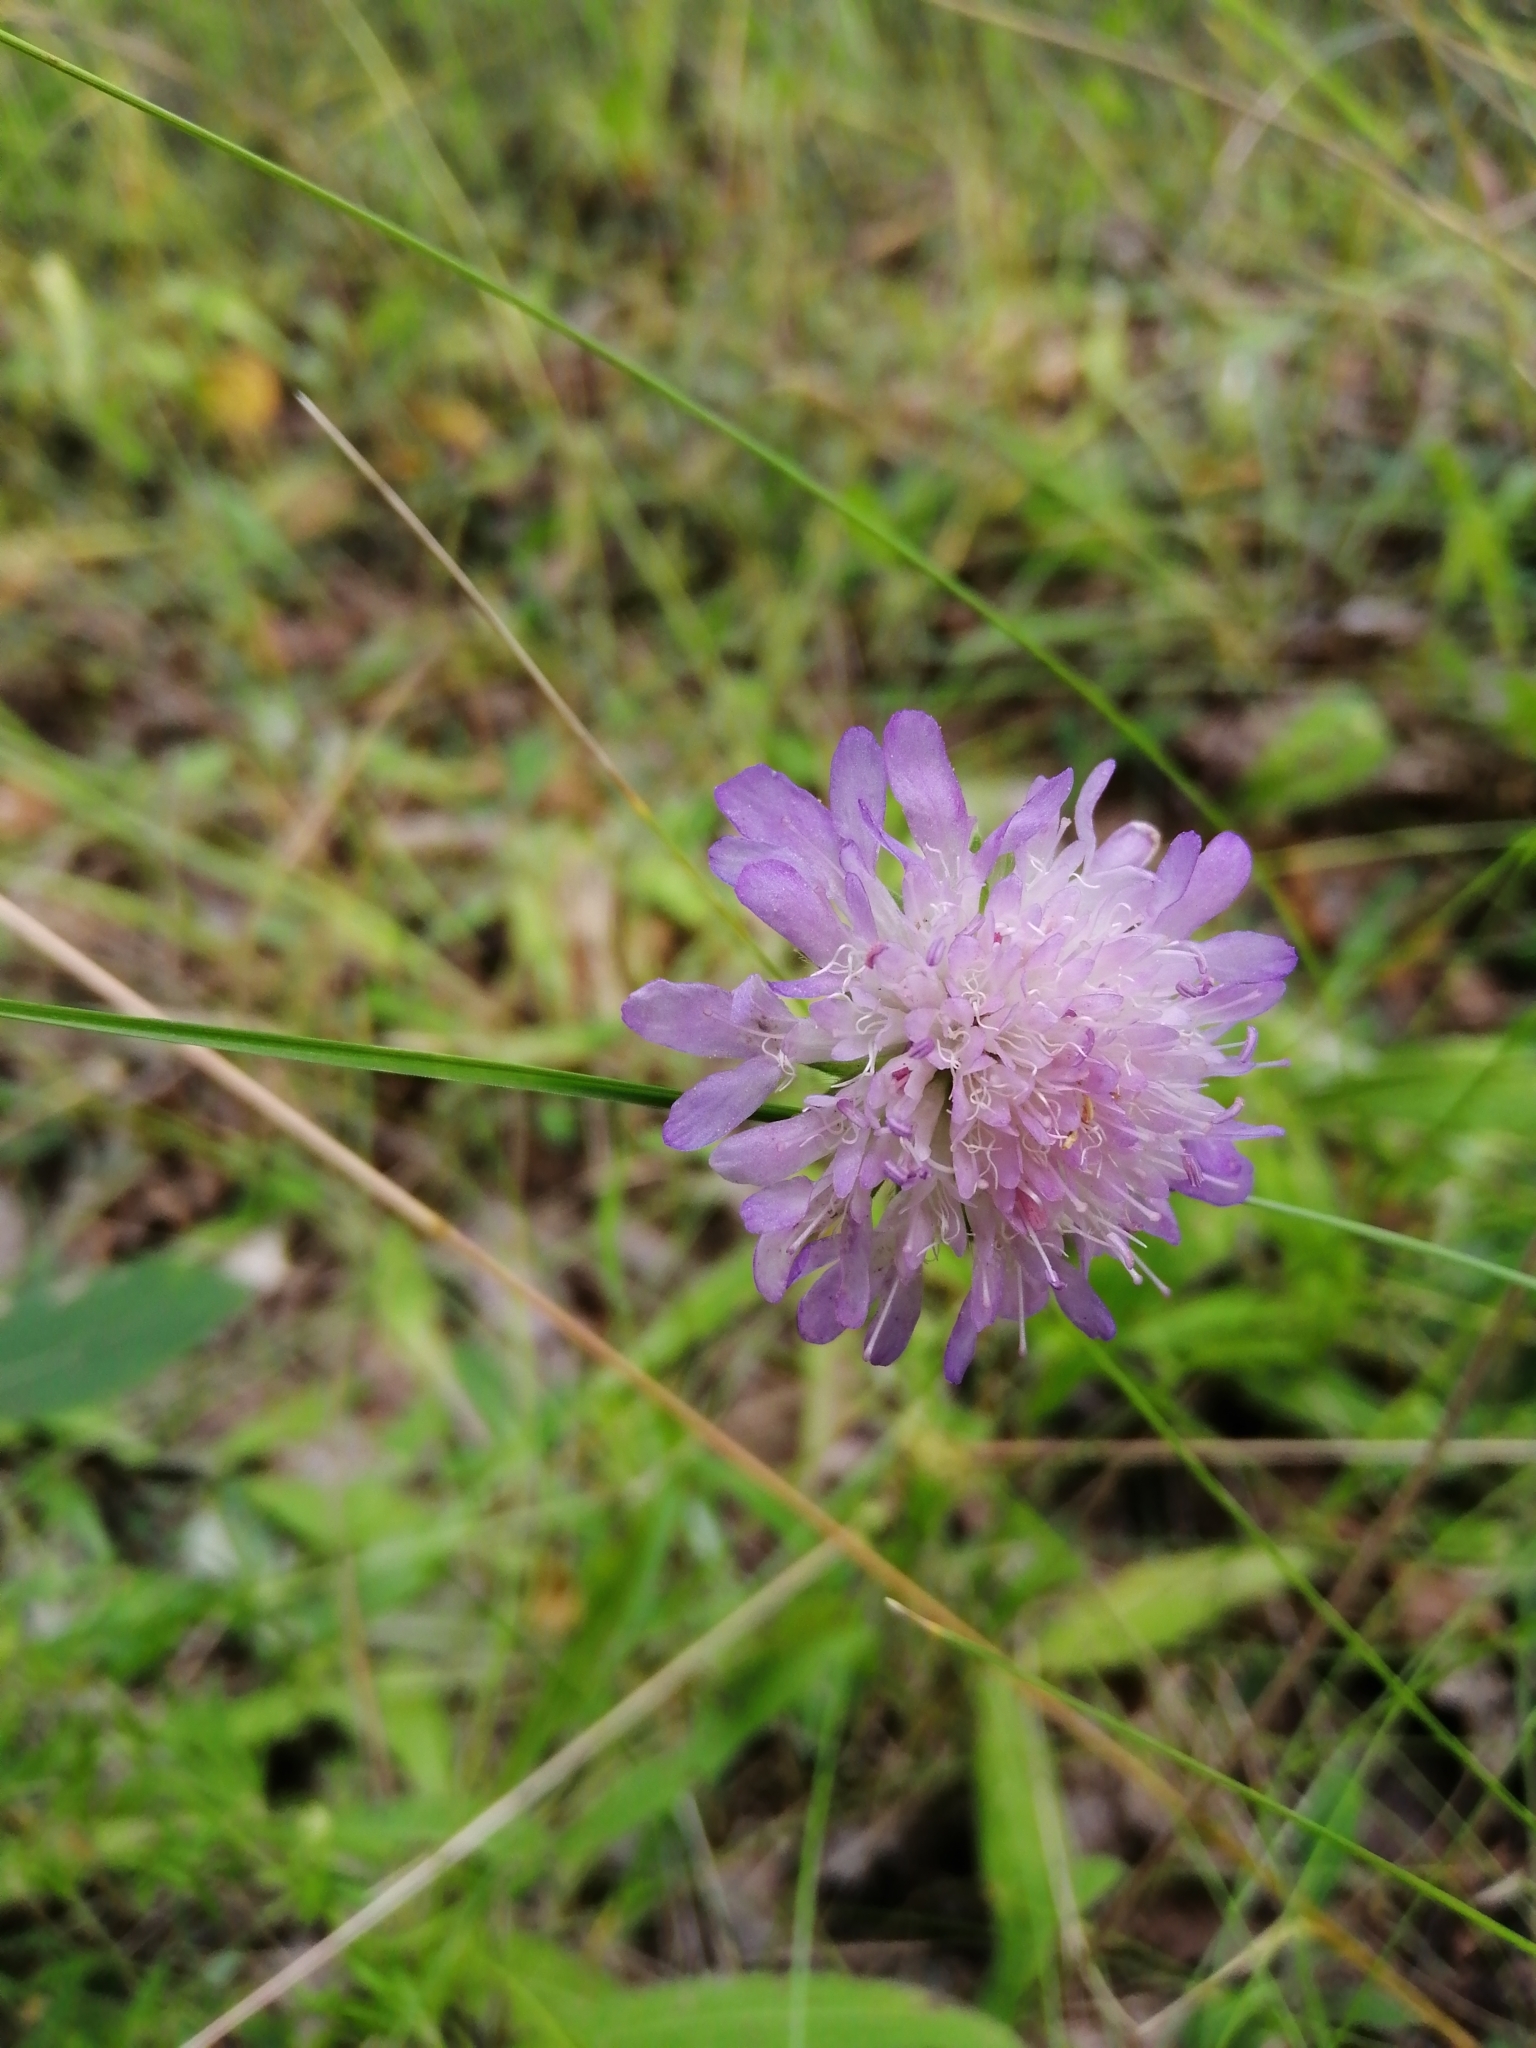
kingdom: Plantae
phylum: Tracheophyta
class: Magnoliopsida
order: Dipsacales
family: Caprifoliaceae
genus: Knautia
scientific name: Knautia arvensis
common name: Field scabiosa
